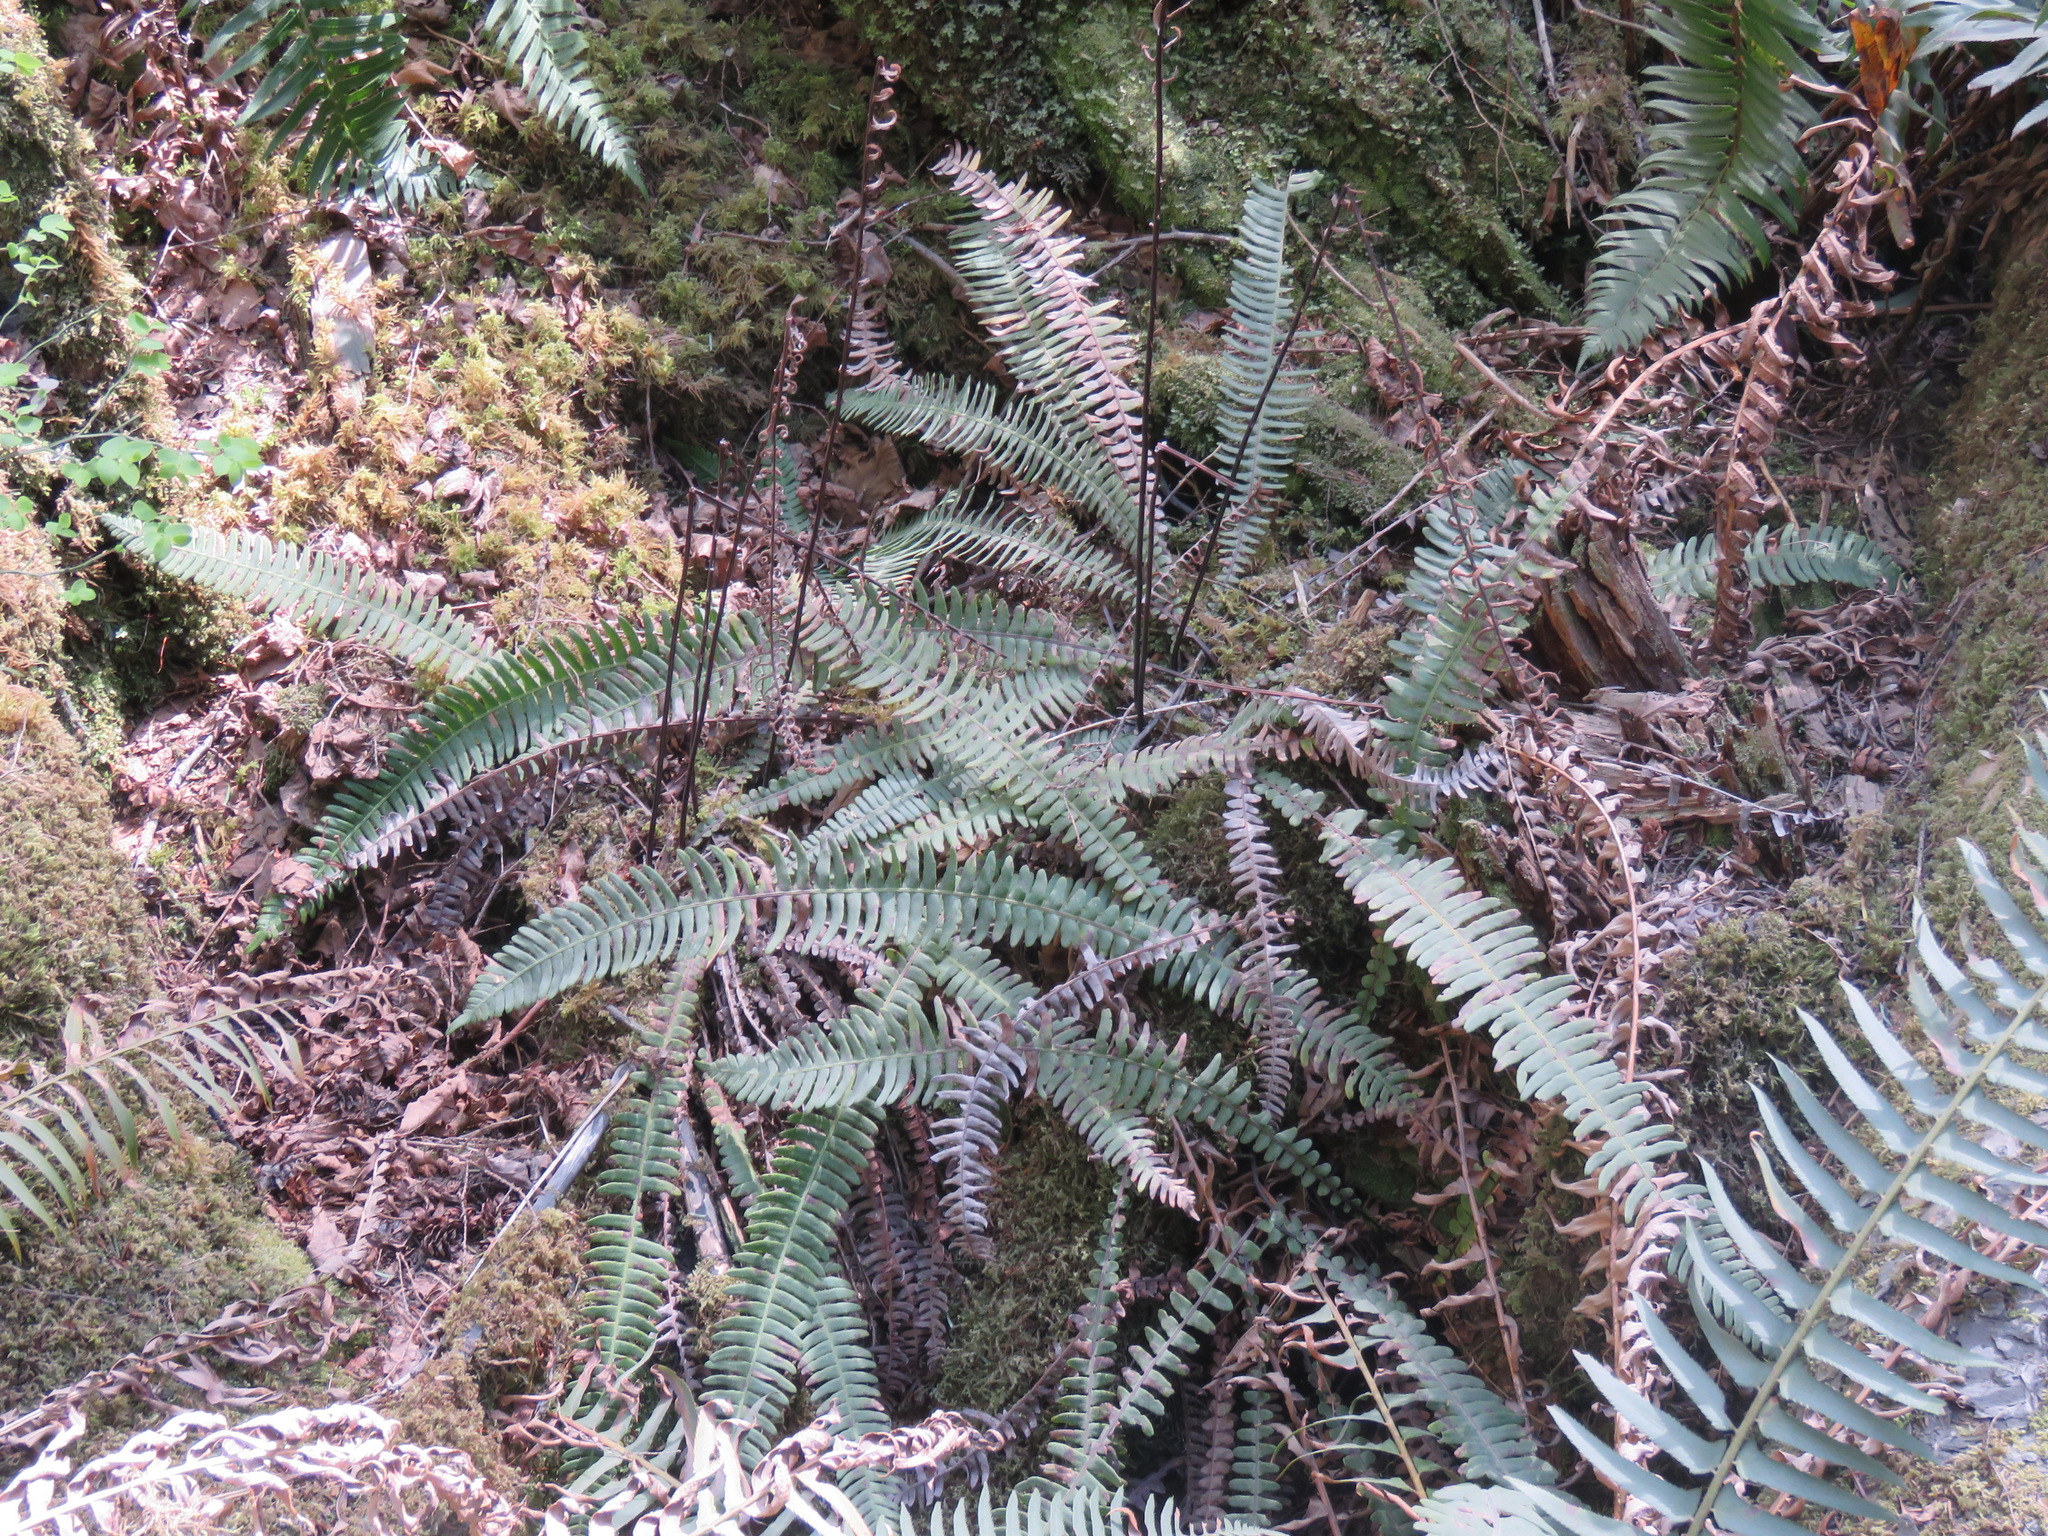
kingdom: Plantae
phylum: Tracheophyta
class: Polypodiopsida
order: Polypodiales
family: Blechnaceae
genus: Struthiopteris
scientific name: Struthiopteris spicant
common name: Deer fern
